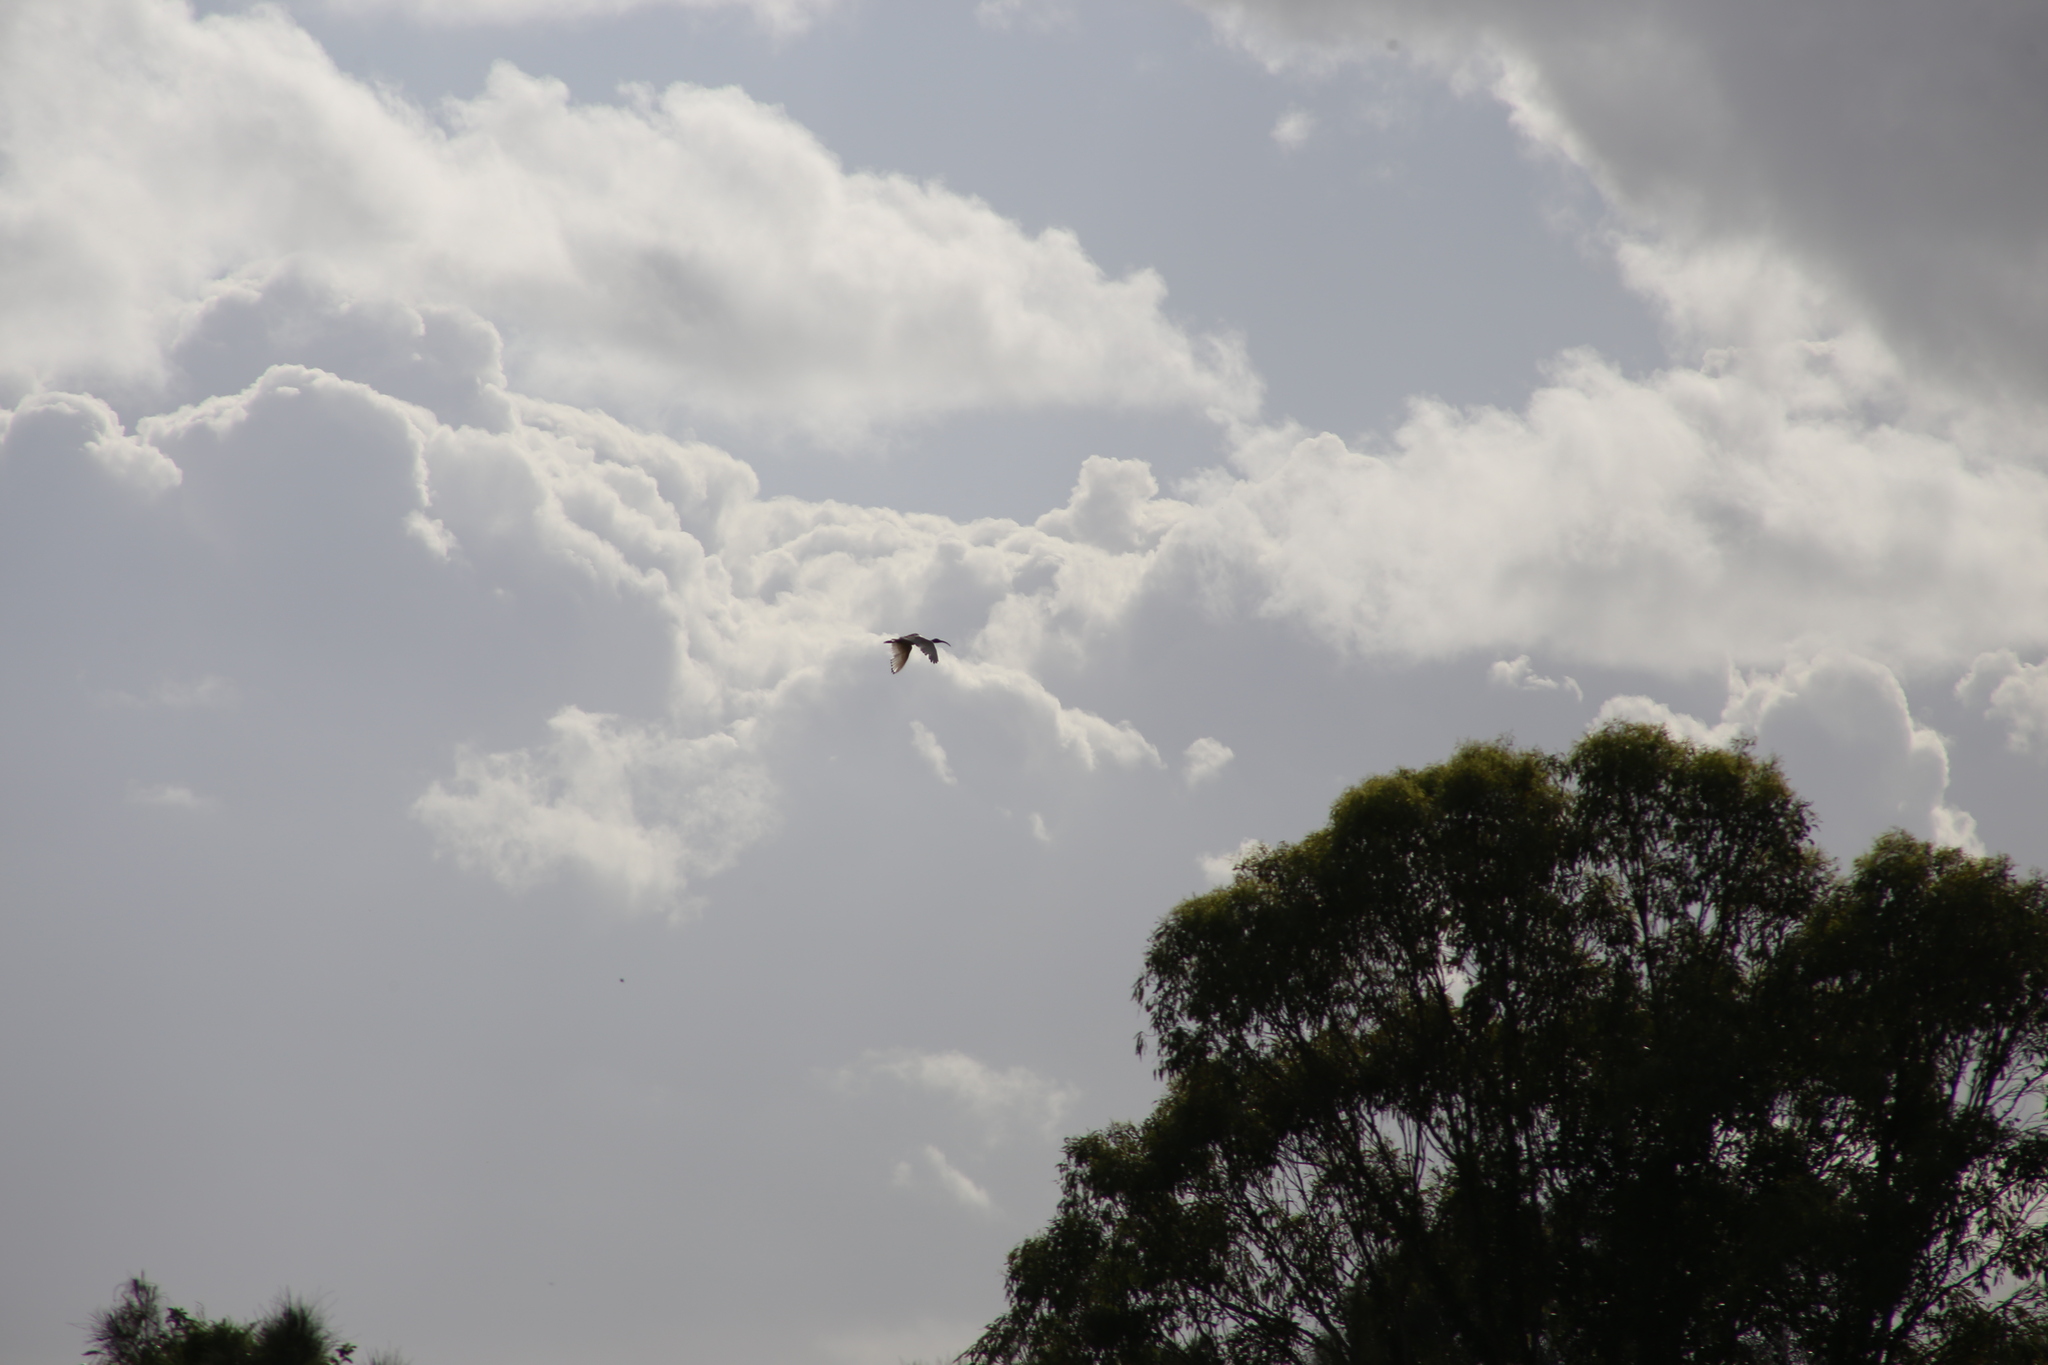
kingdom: Animalia
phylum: Chordata
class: Aves
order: Pelecaniformes
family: Threskiornithidae
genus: Threskiornis
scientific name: Threskiornis molucca
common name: Australian white ibis
